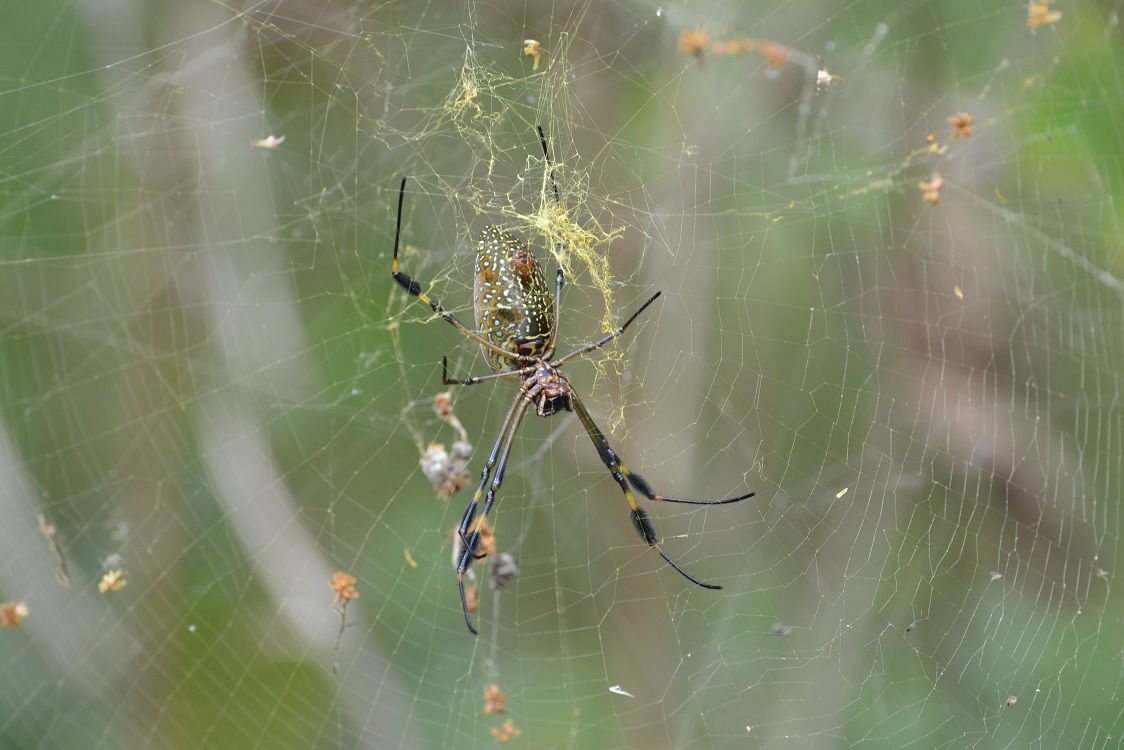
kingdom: Animalia
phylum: Arthropoda
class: Arachnida
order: Araneae
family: Araneidae
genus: Trichonephila
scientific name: Trichonephila clavipes
